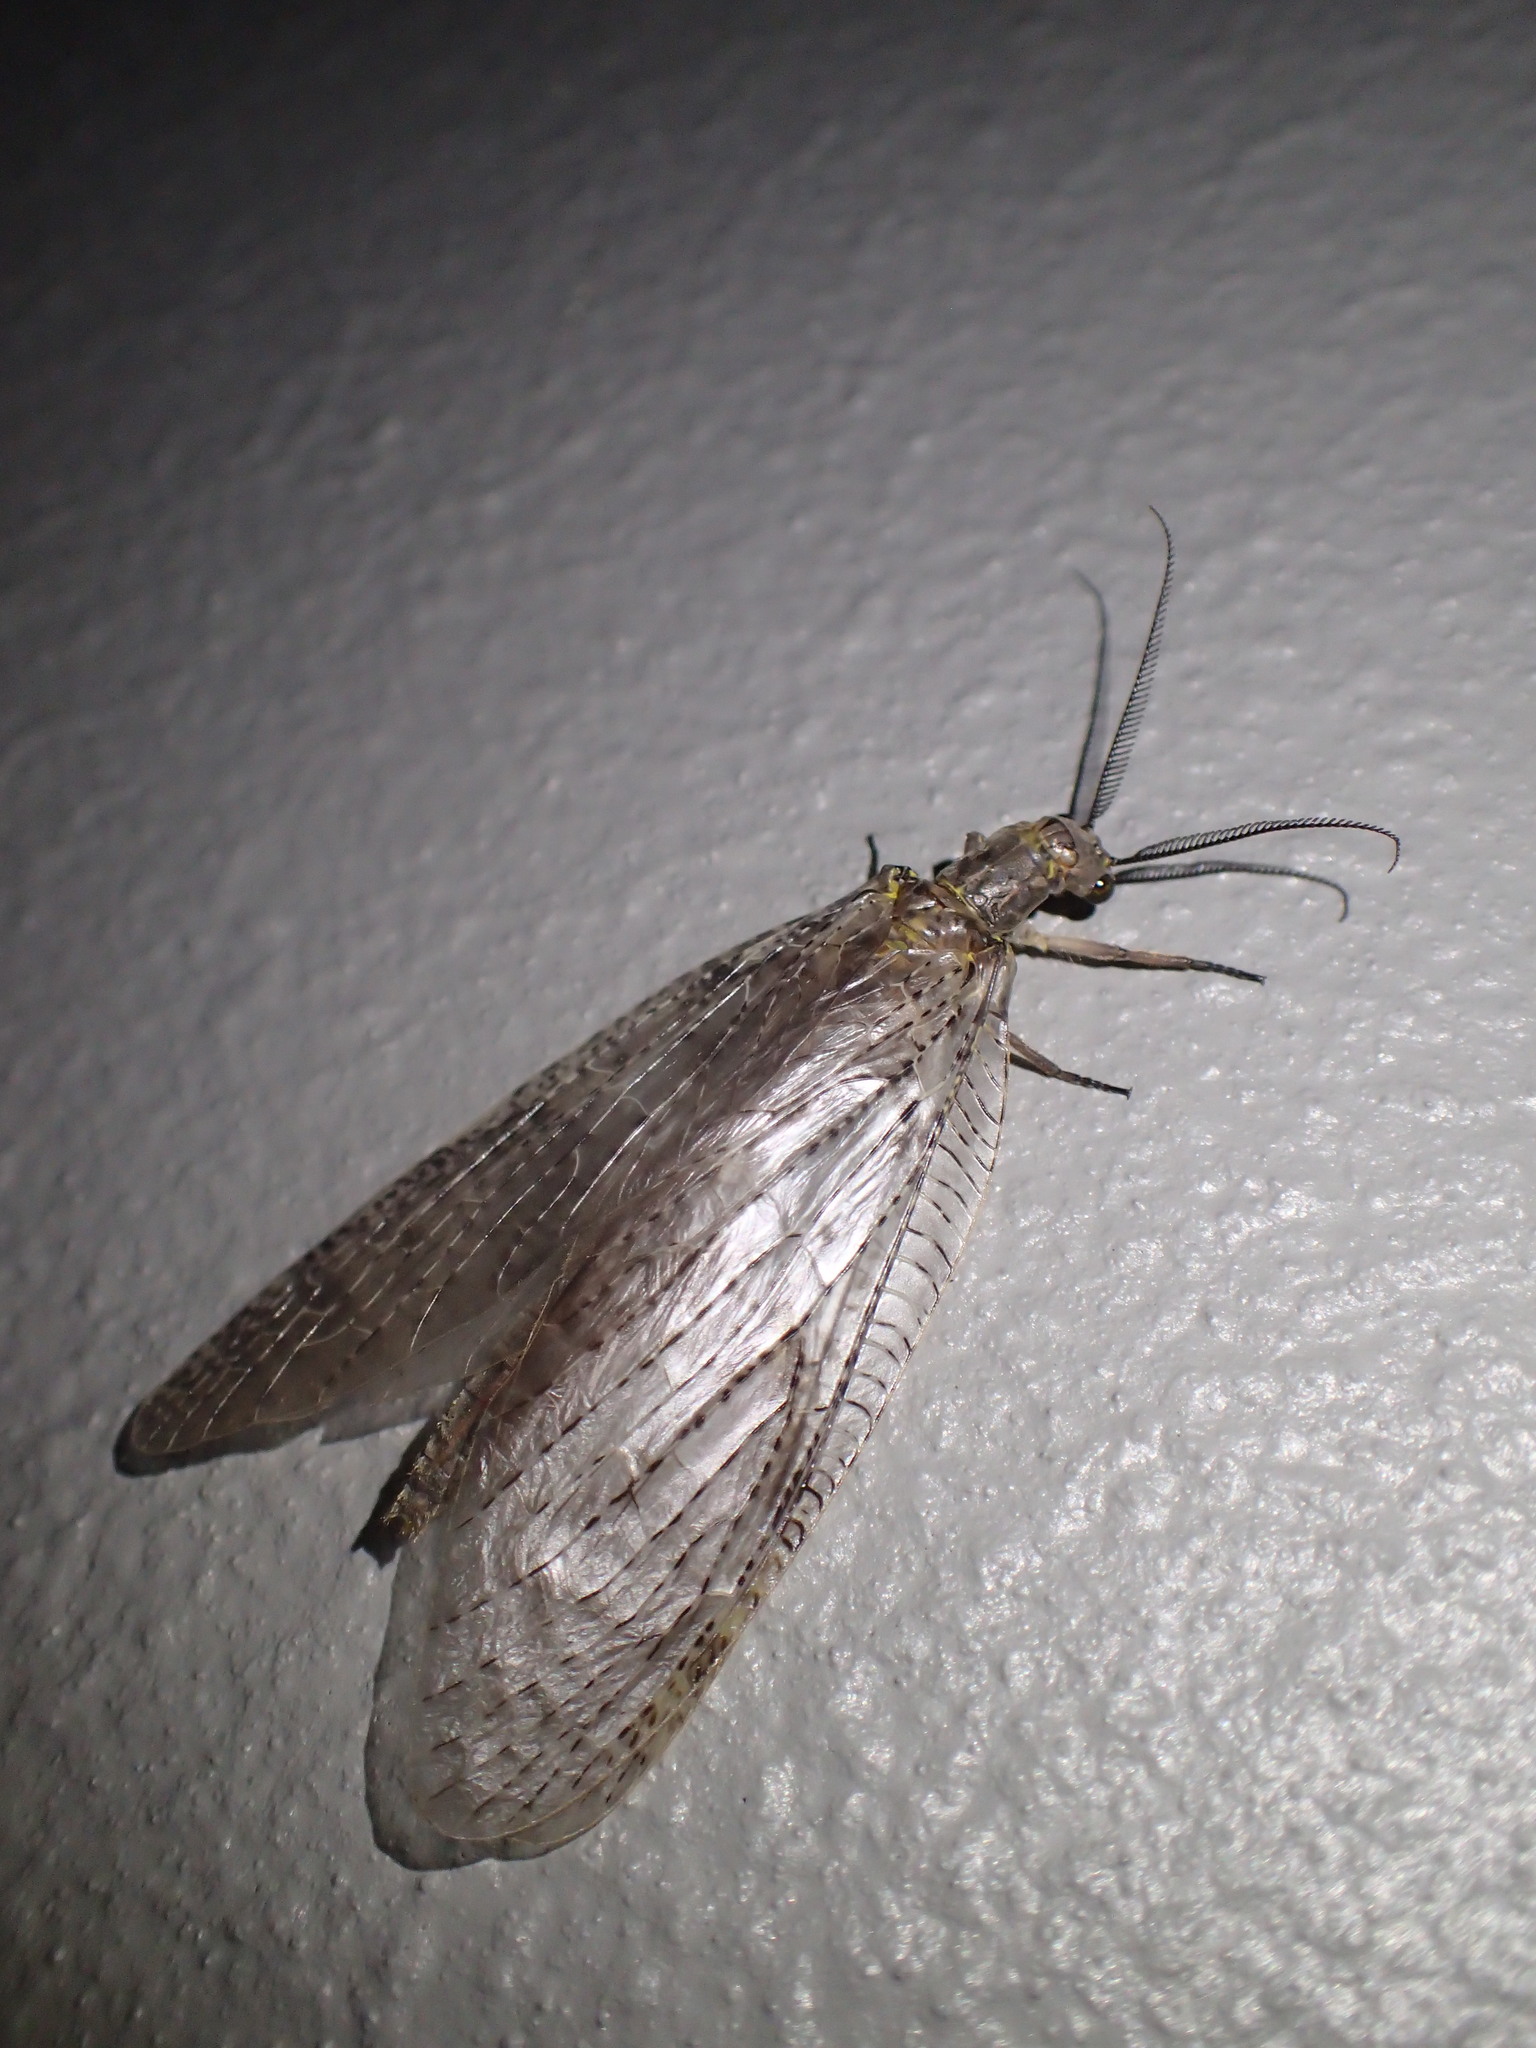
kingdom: Animalia
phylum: Arthropoda
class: Insecta
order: Megaloptera
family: Corydalidae
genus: Chauliodes
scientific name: Chauliodes pectinicornis
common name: Summer fishfly
